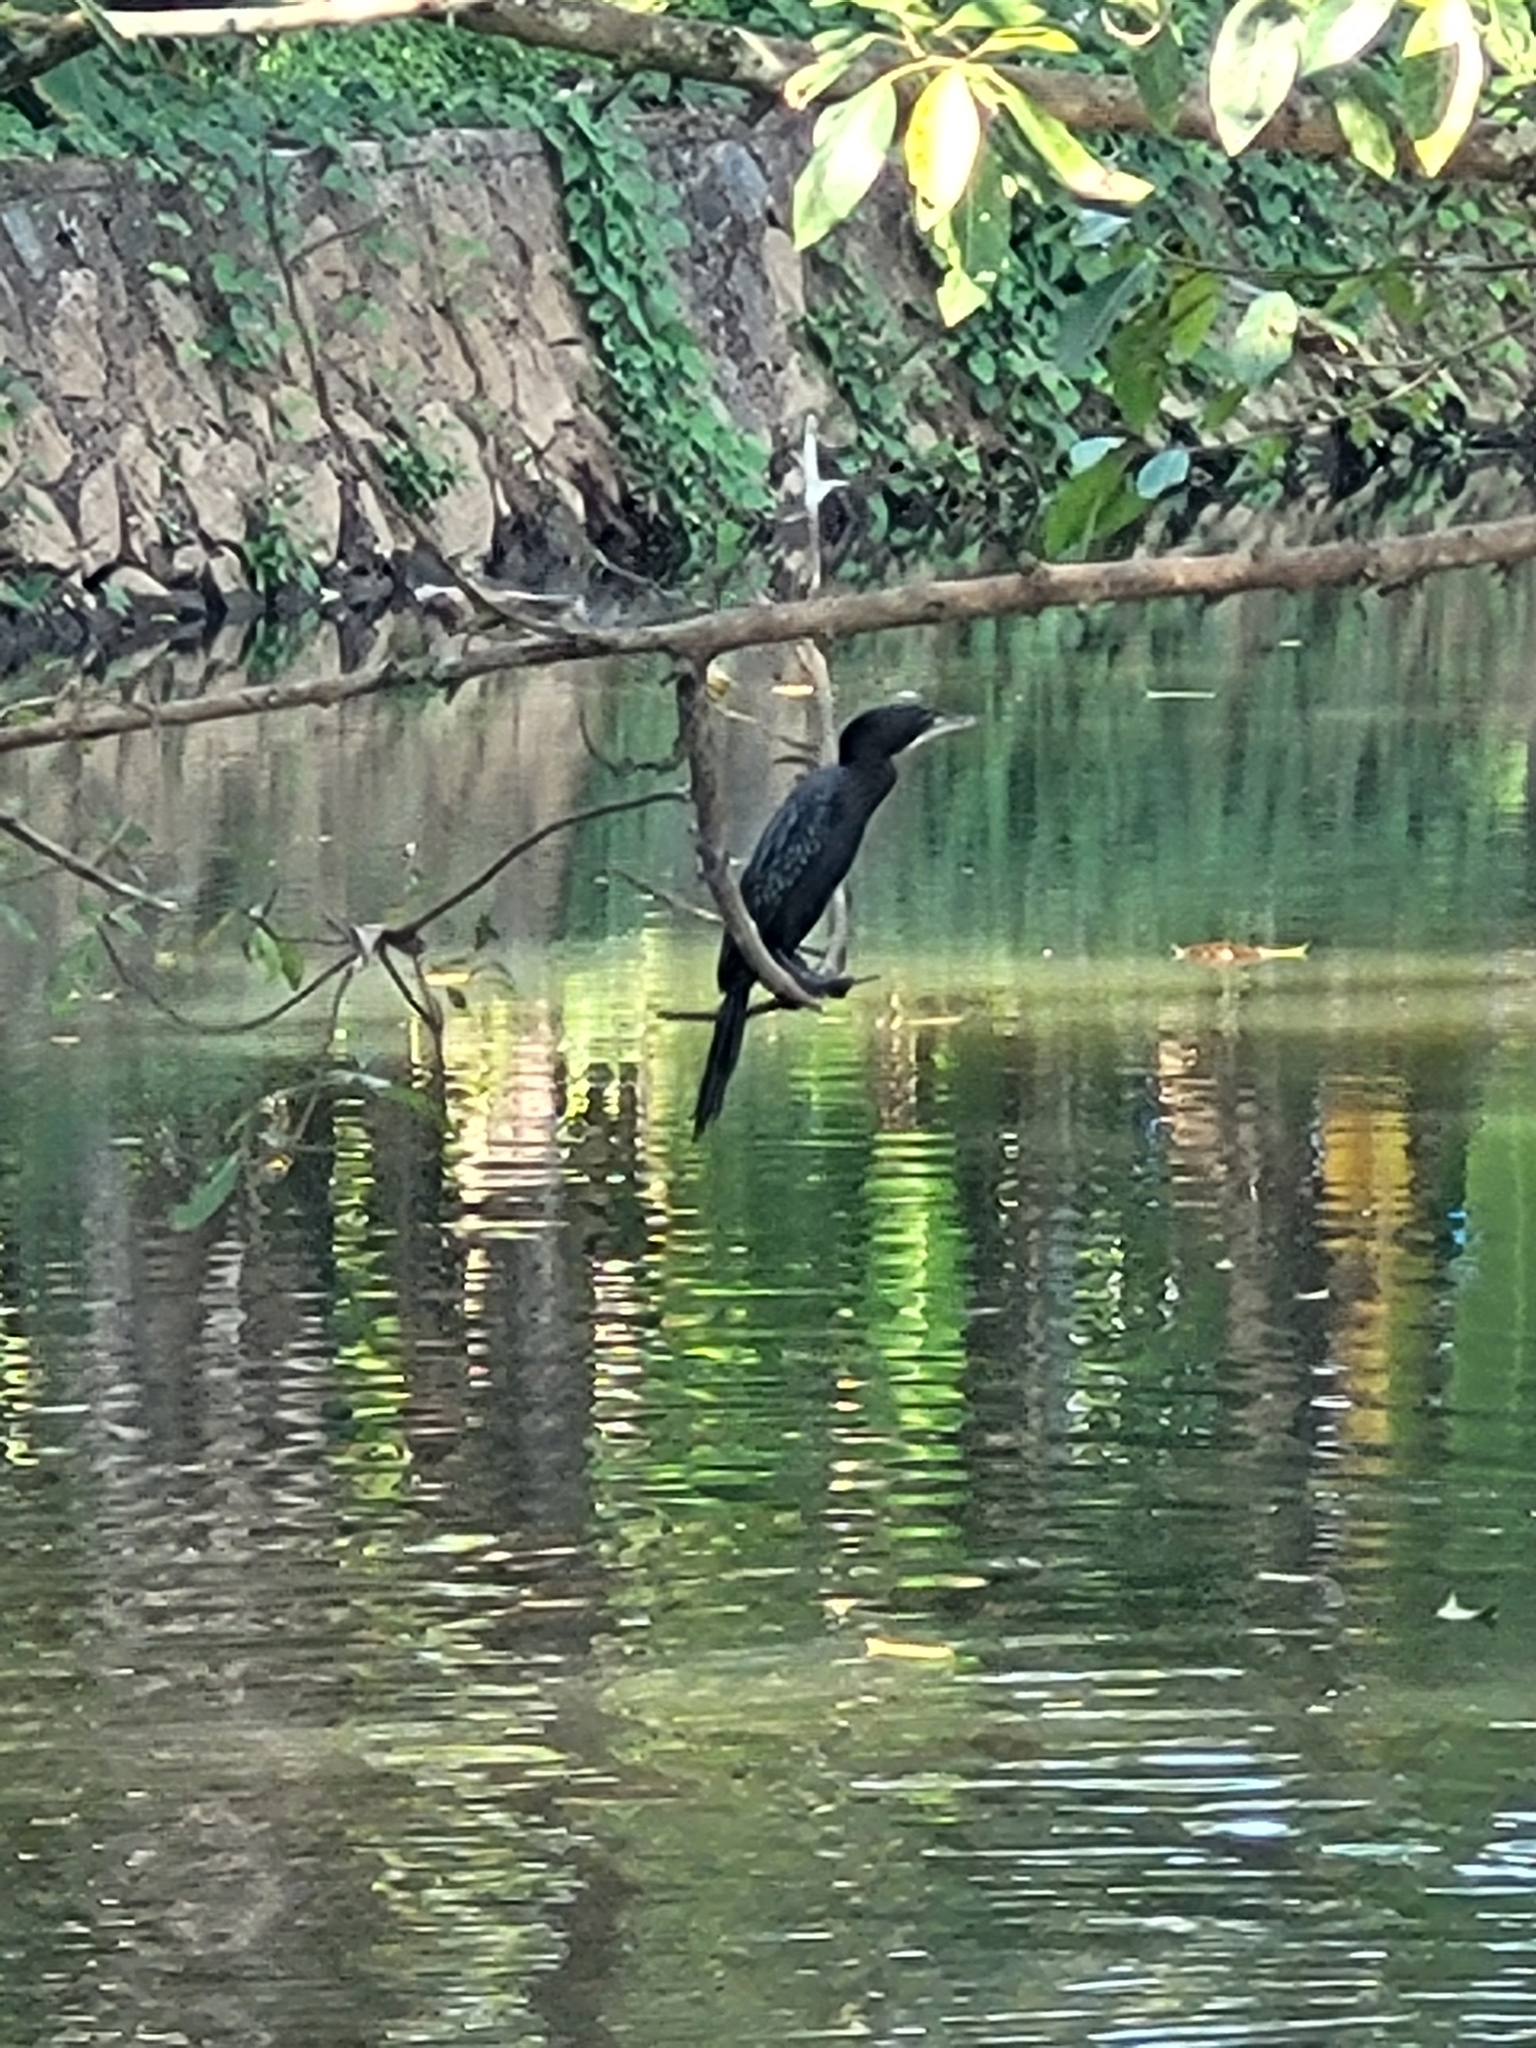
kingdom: Animalia
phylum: Chordata
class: Aves
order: Suliformes
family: Phalacrocoracidae
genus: Microcarbo
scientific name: Microcarbo niger
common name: Little cormorant
